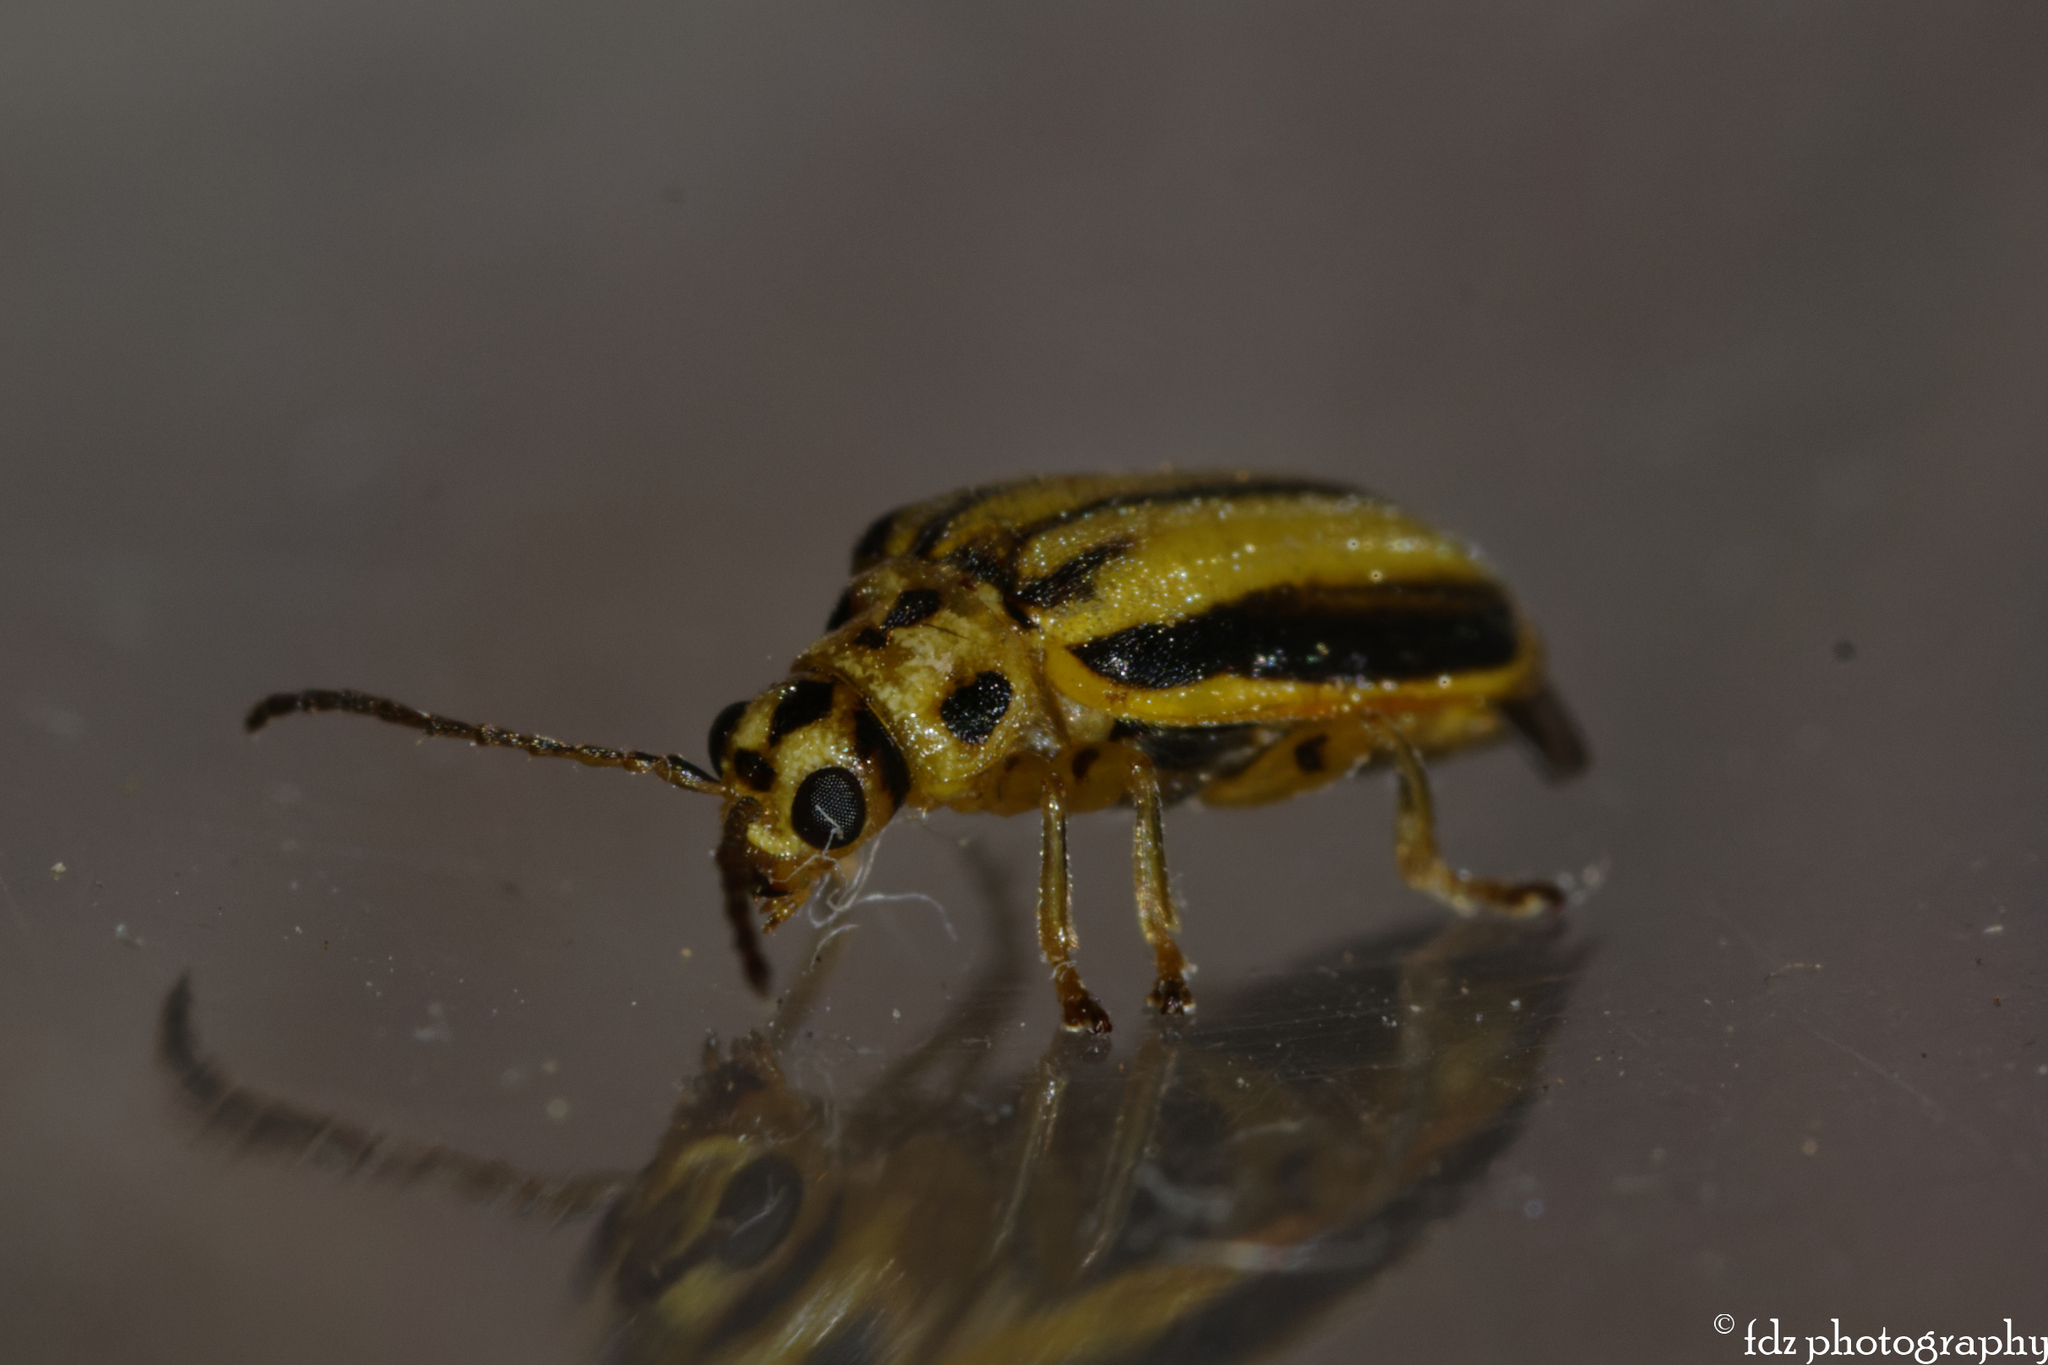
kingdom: Animalia
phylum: Arthropoda
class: Insecta
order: Coleoptera
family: Chrysomelidae
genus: Xanthogaleruca
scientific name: Xanthogaleruca luteola
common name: Elm leaf beetle
